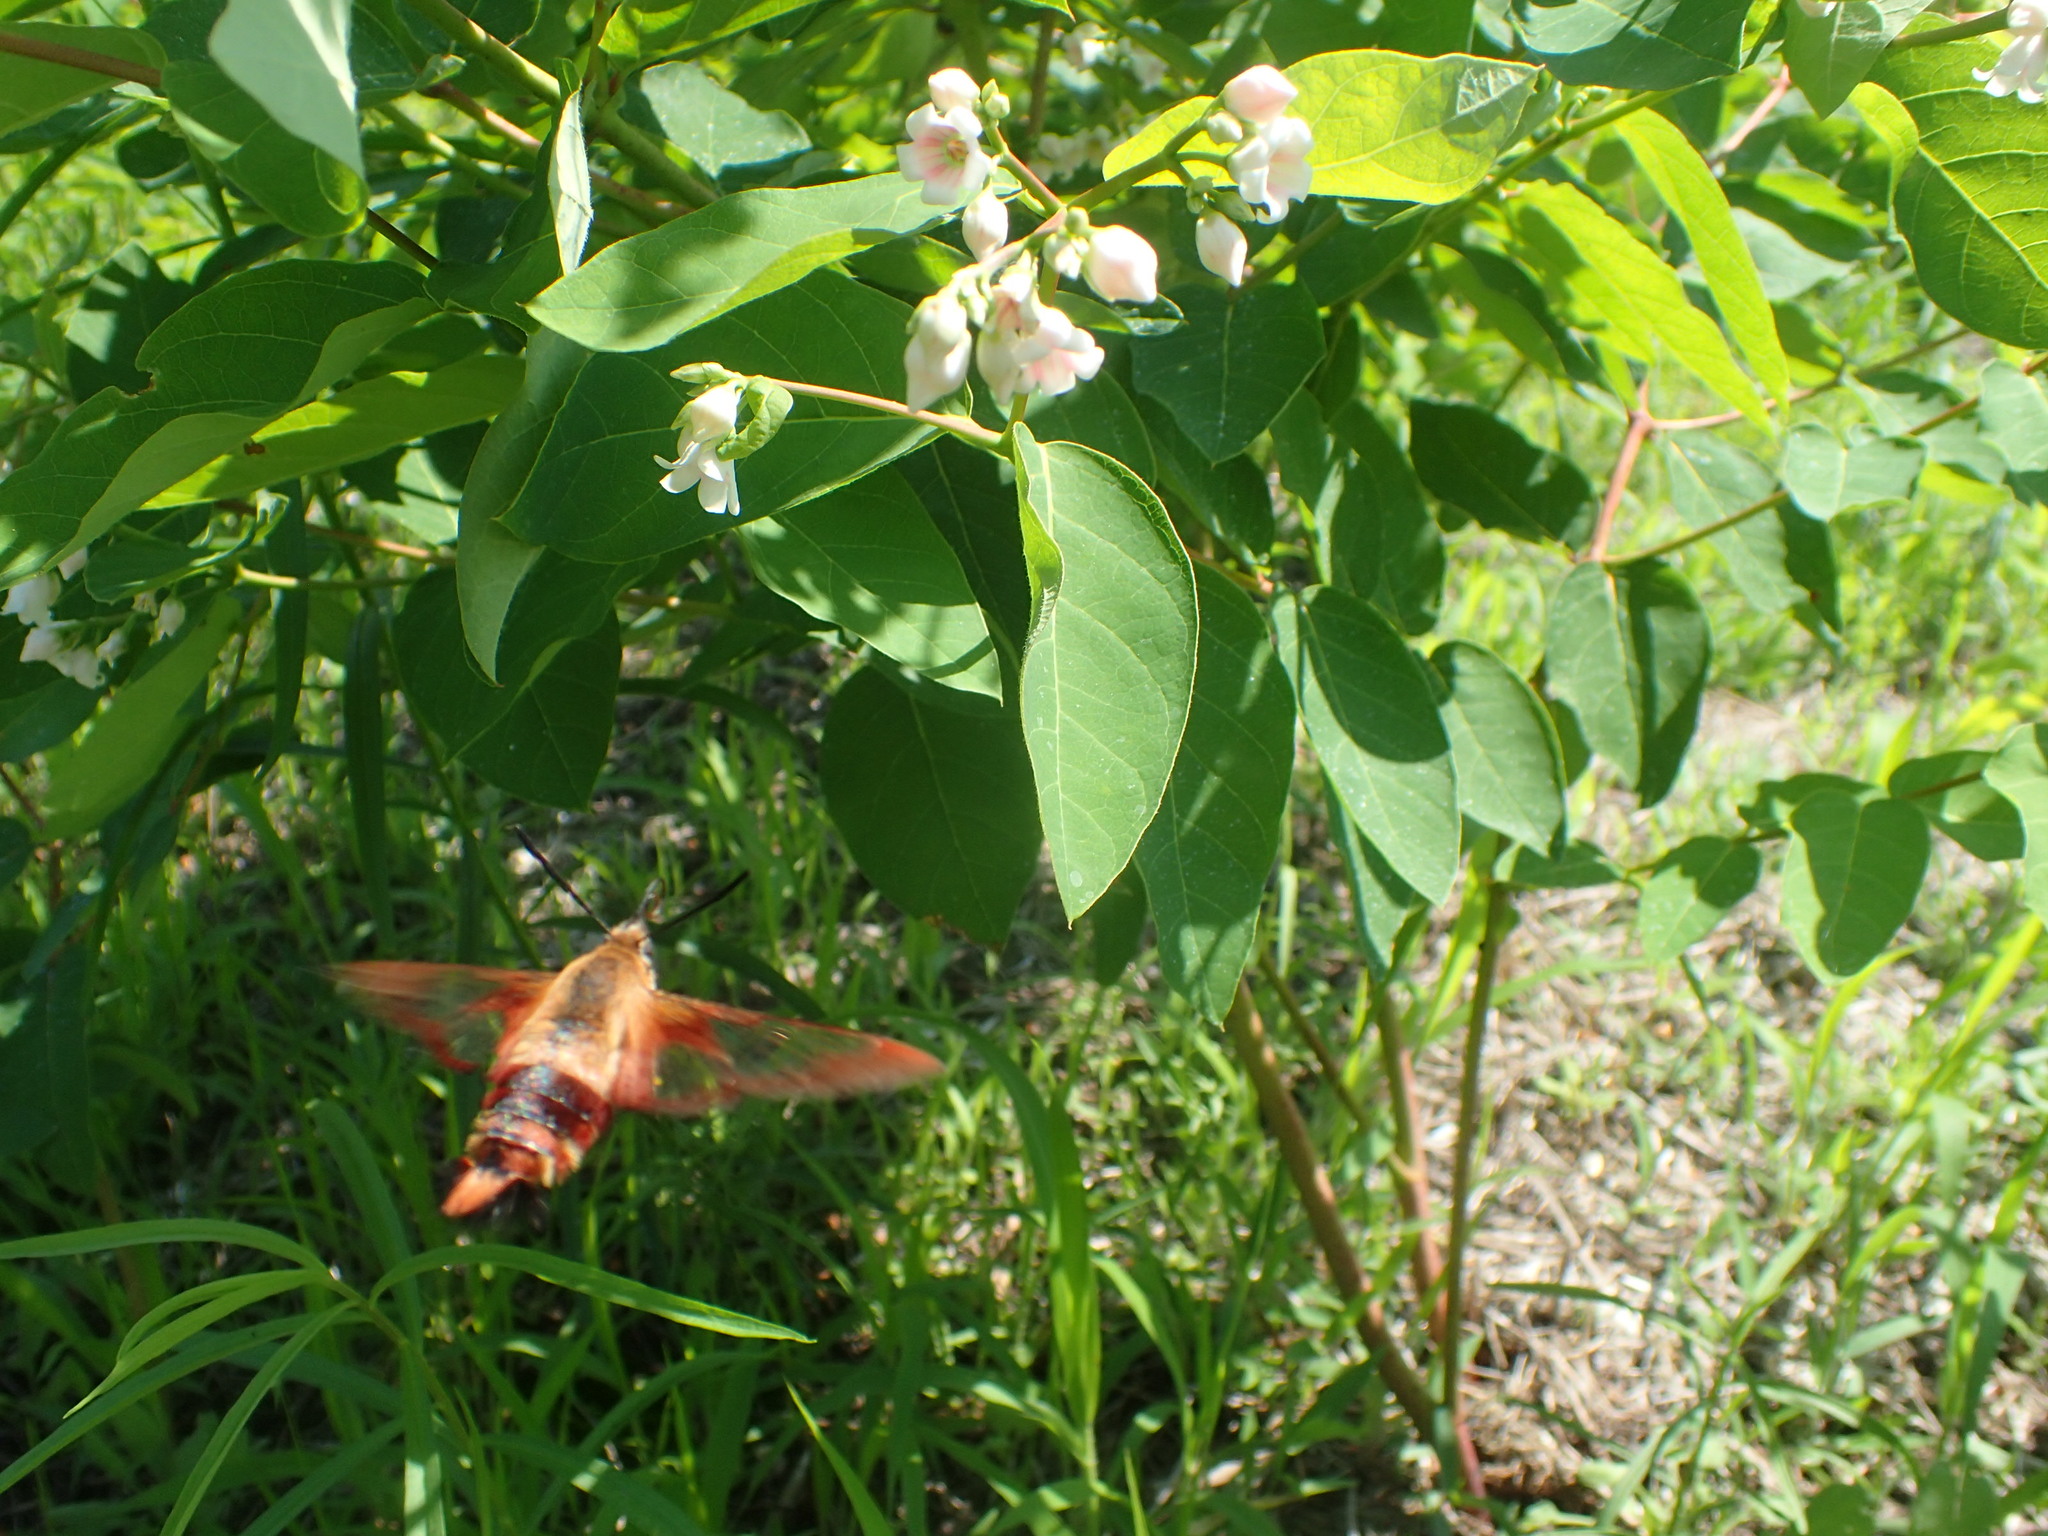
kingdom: Animalia
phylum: Arthropoda
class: Insecta
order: Lepidoptera
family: Sphingidae
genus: Hemaris
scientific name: Hemaris thysbe
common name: Common clear-wing
